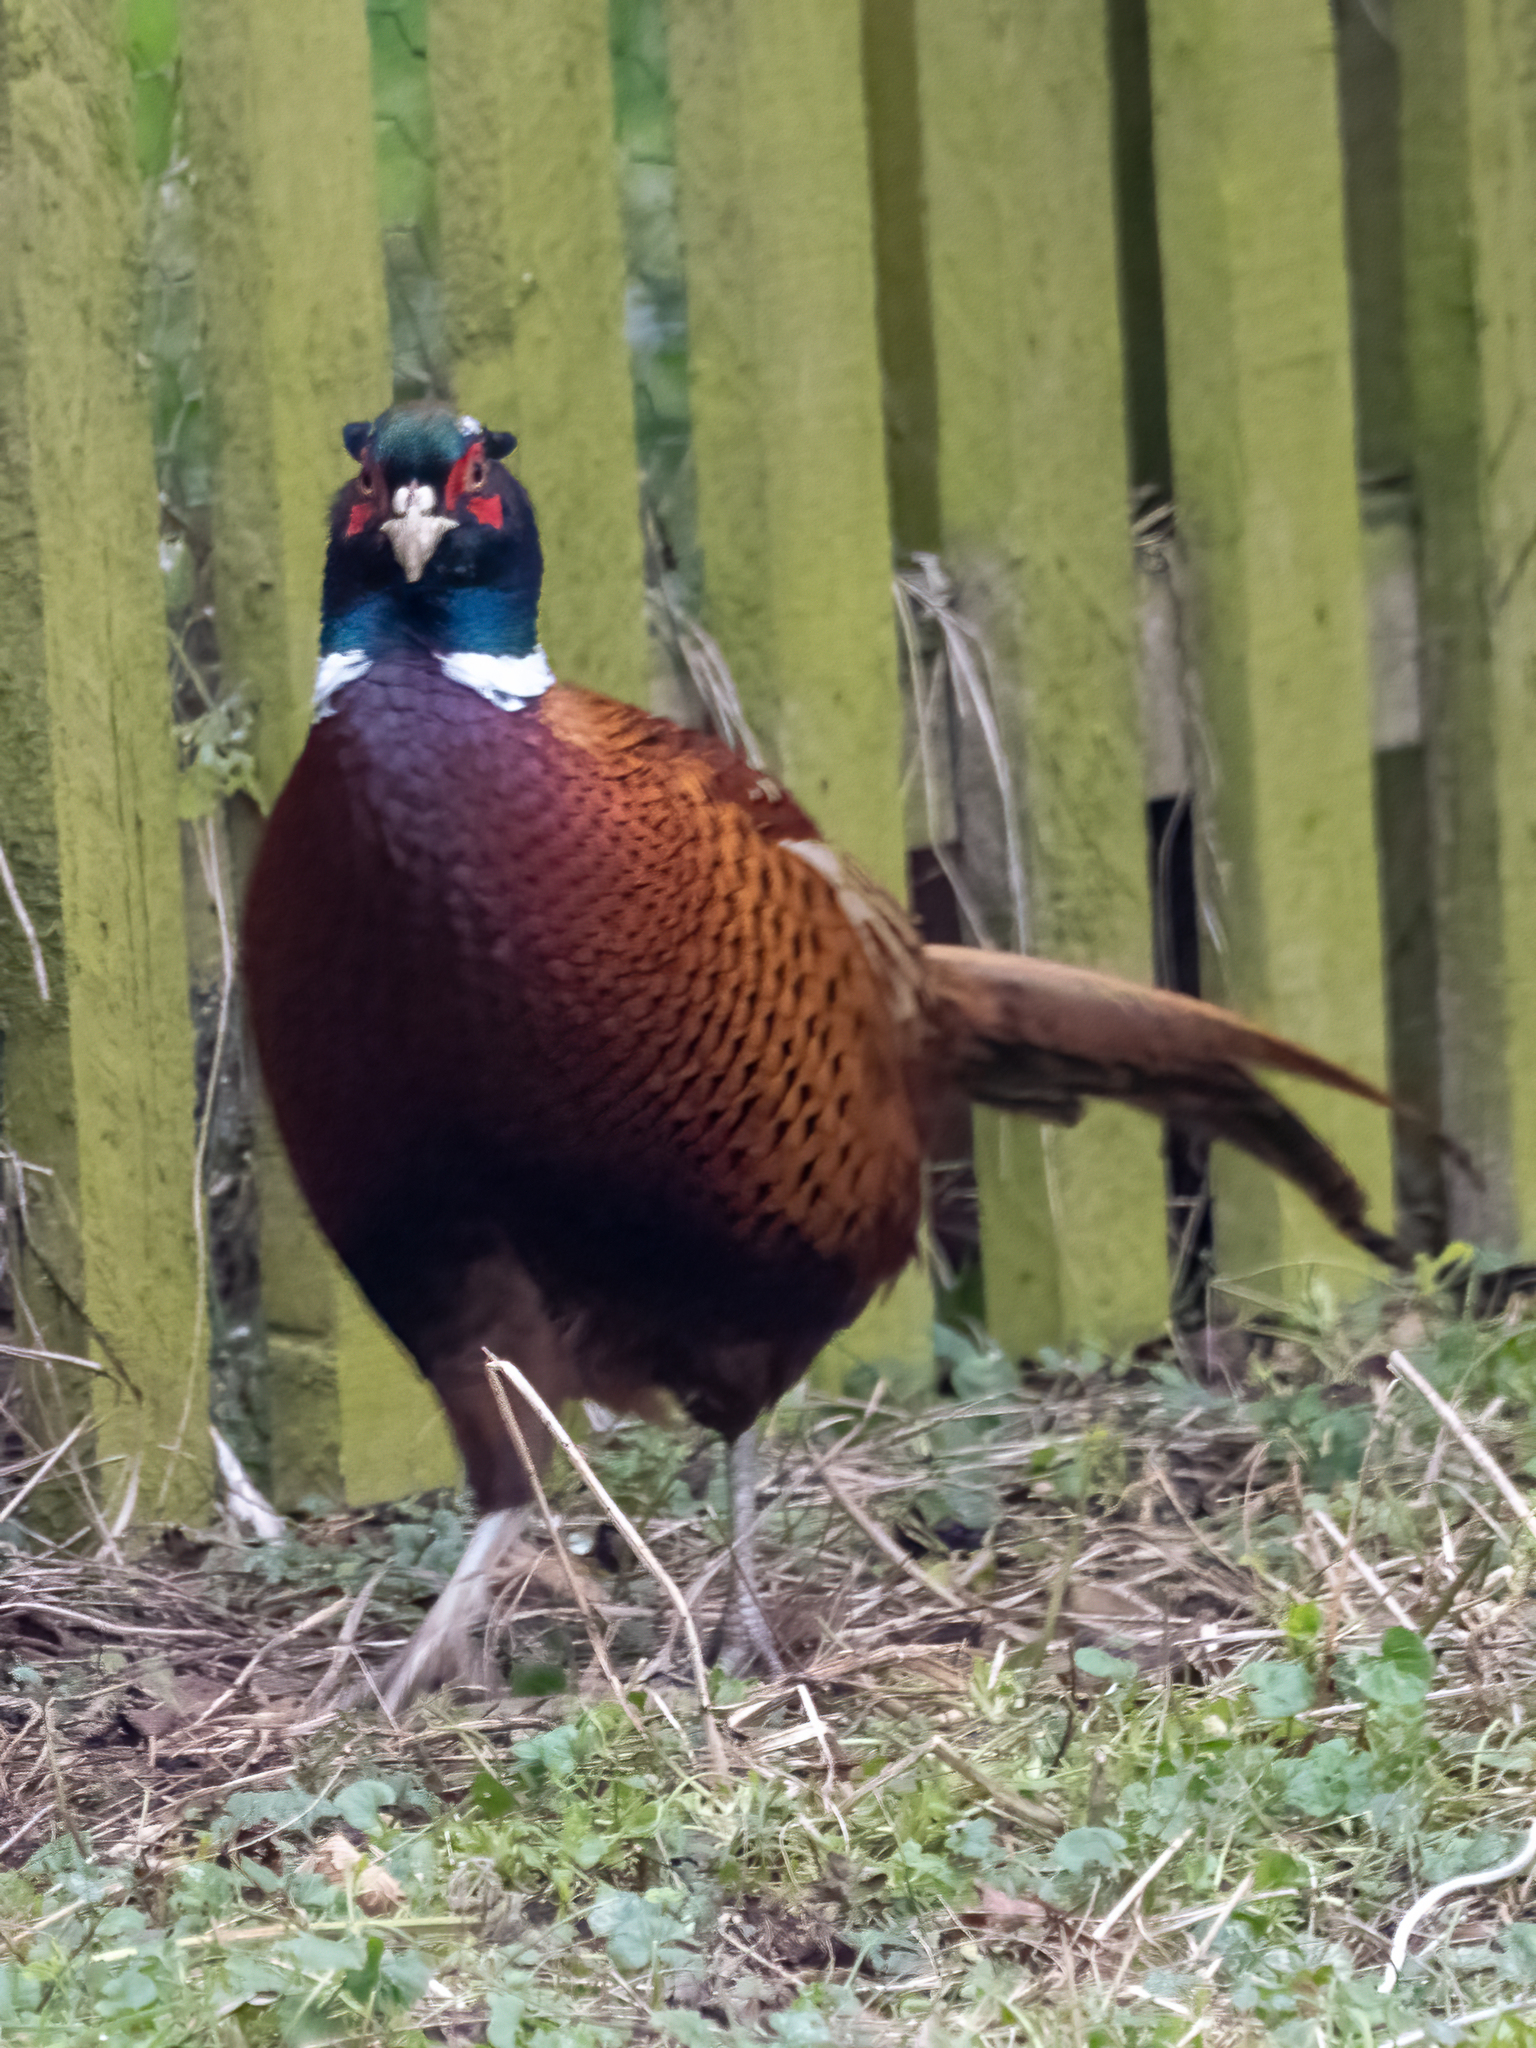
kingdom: Animalia
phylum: Chordata
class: Aves
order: Galliformes
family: Phasianidae
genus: Phasianus
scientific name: Phasianus colchicus
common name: Common pheasant
